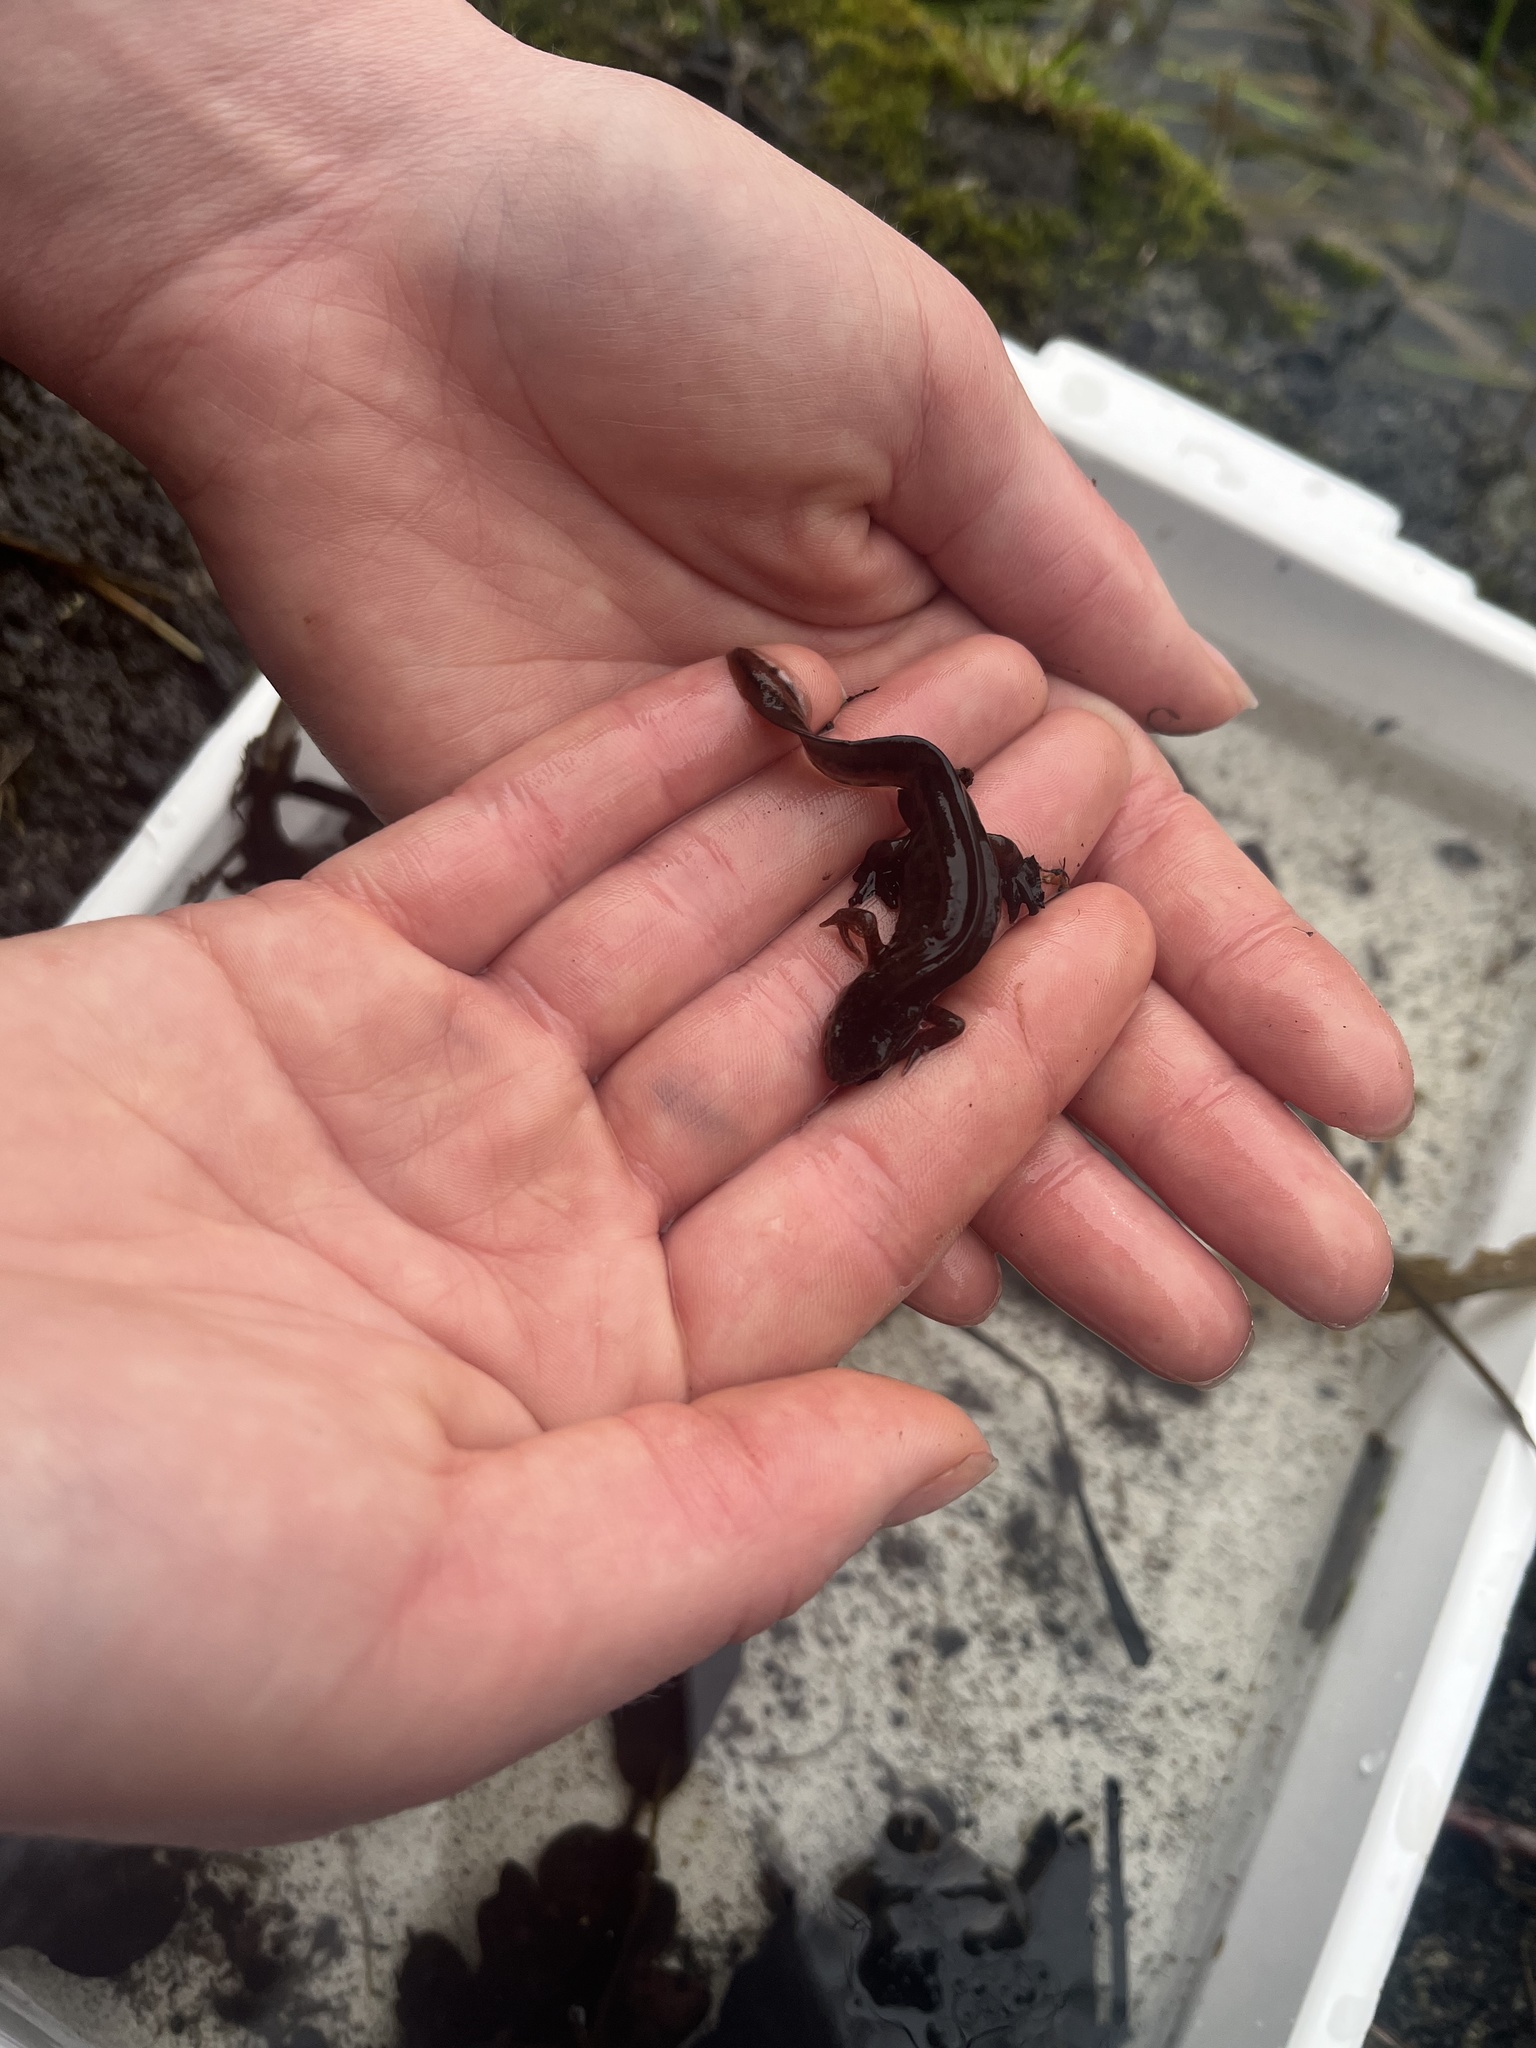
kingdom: Animalia
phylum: Chordata
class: Amphibia
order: Caudata
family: Salamandridae
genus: Lissotriton
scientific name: Lissotriton helveticus
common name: Palmate newt
